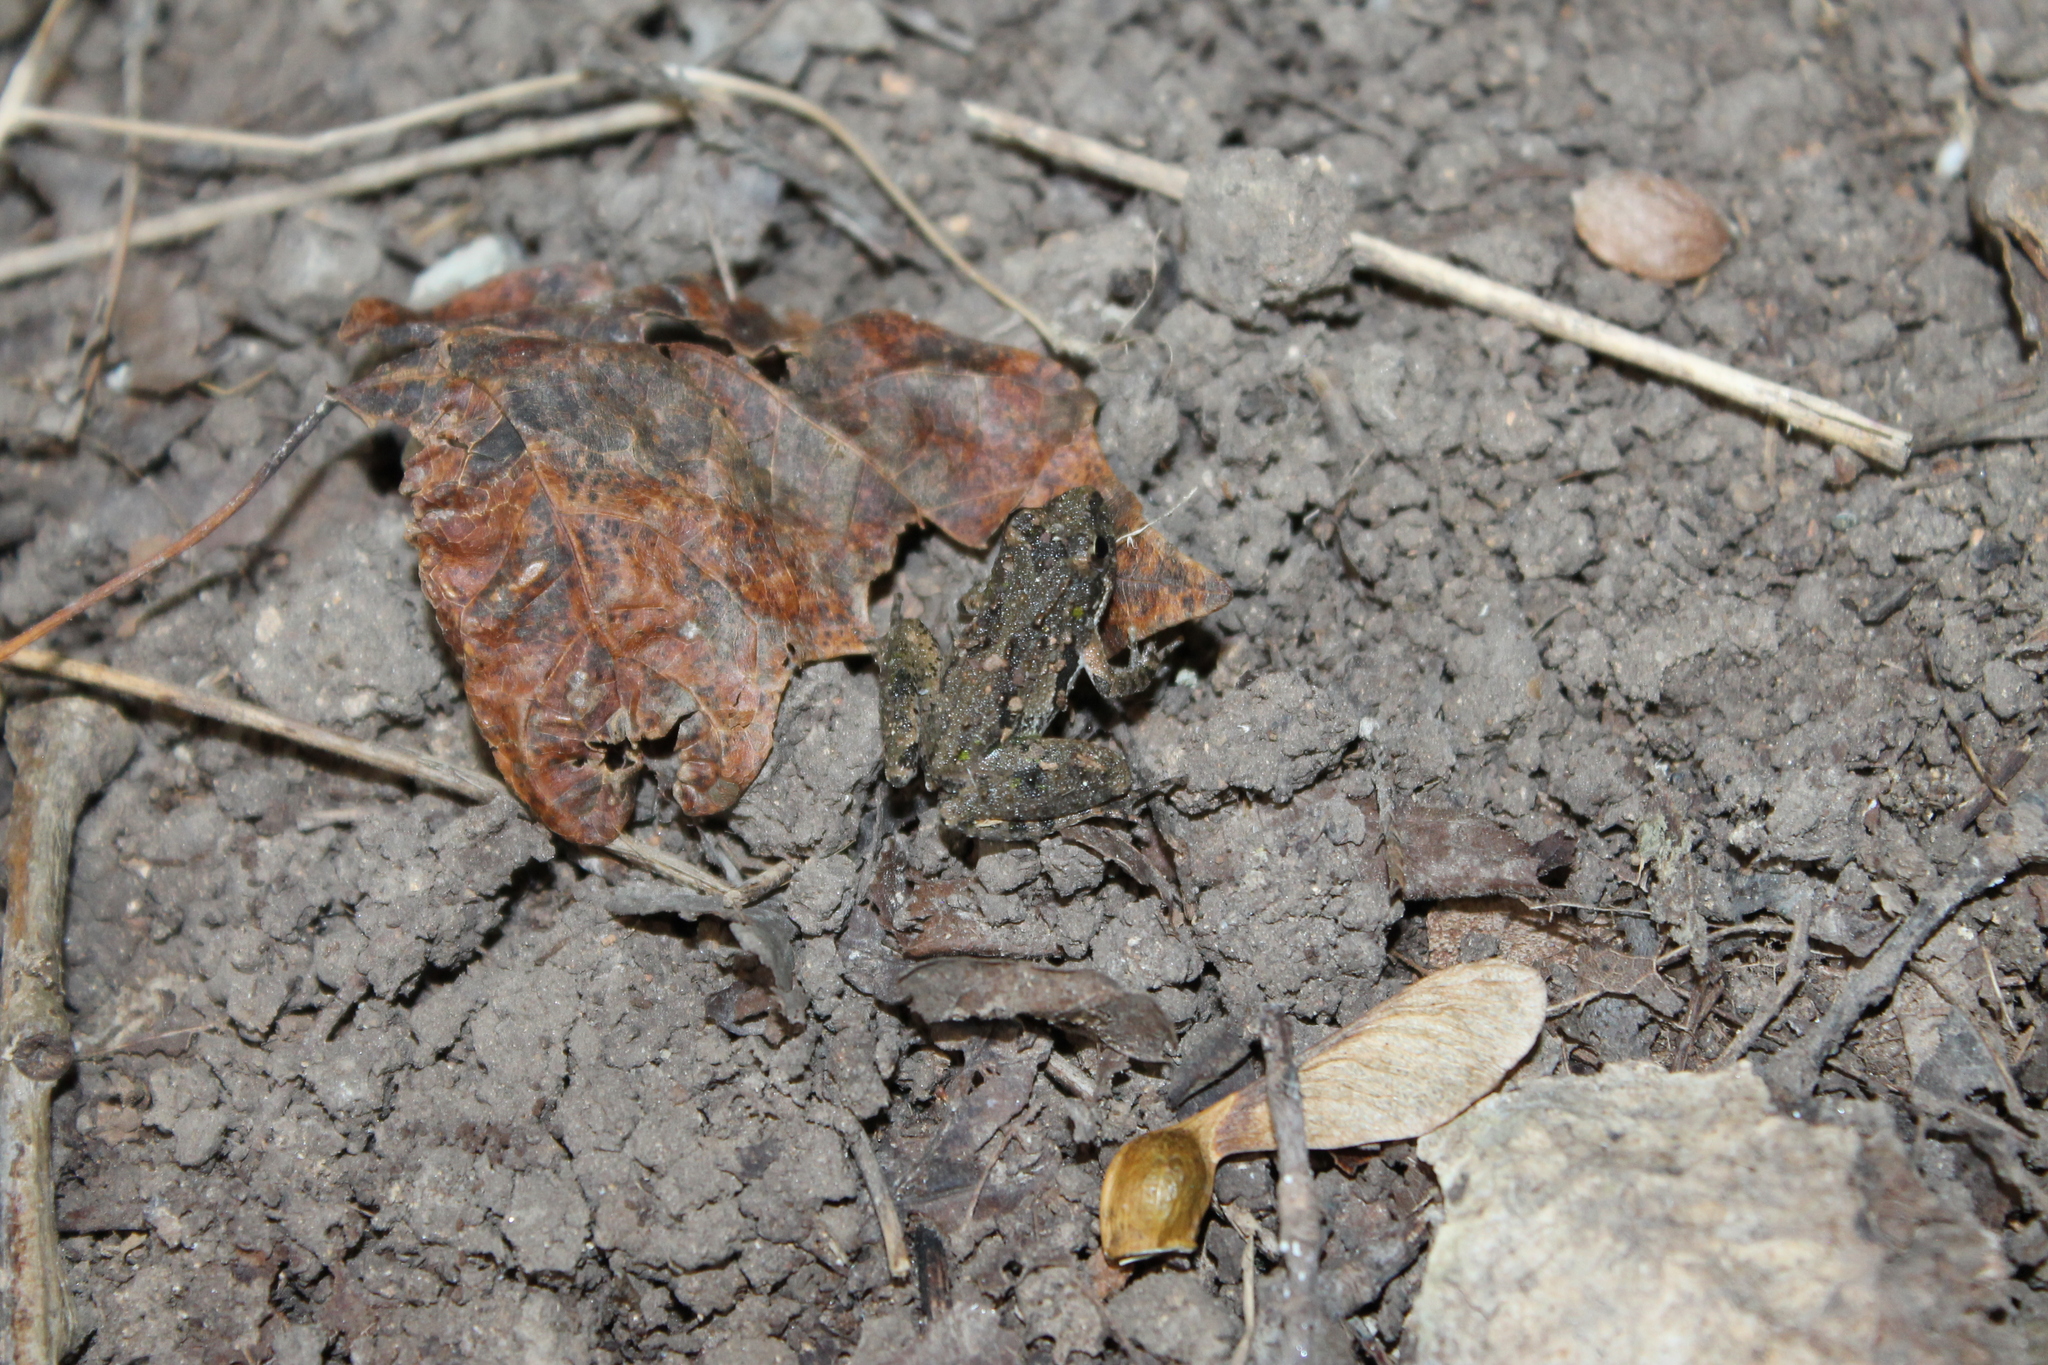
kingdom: Animalia
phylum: Chordata
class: Amphibia
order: Anura
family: Hylidae
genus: Acris
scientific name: Acris crepitans
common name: Northern cricket frog
